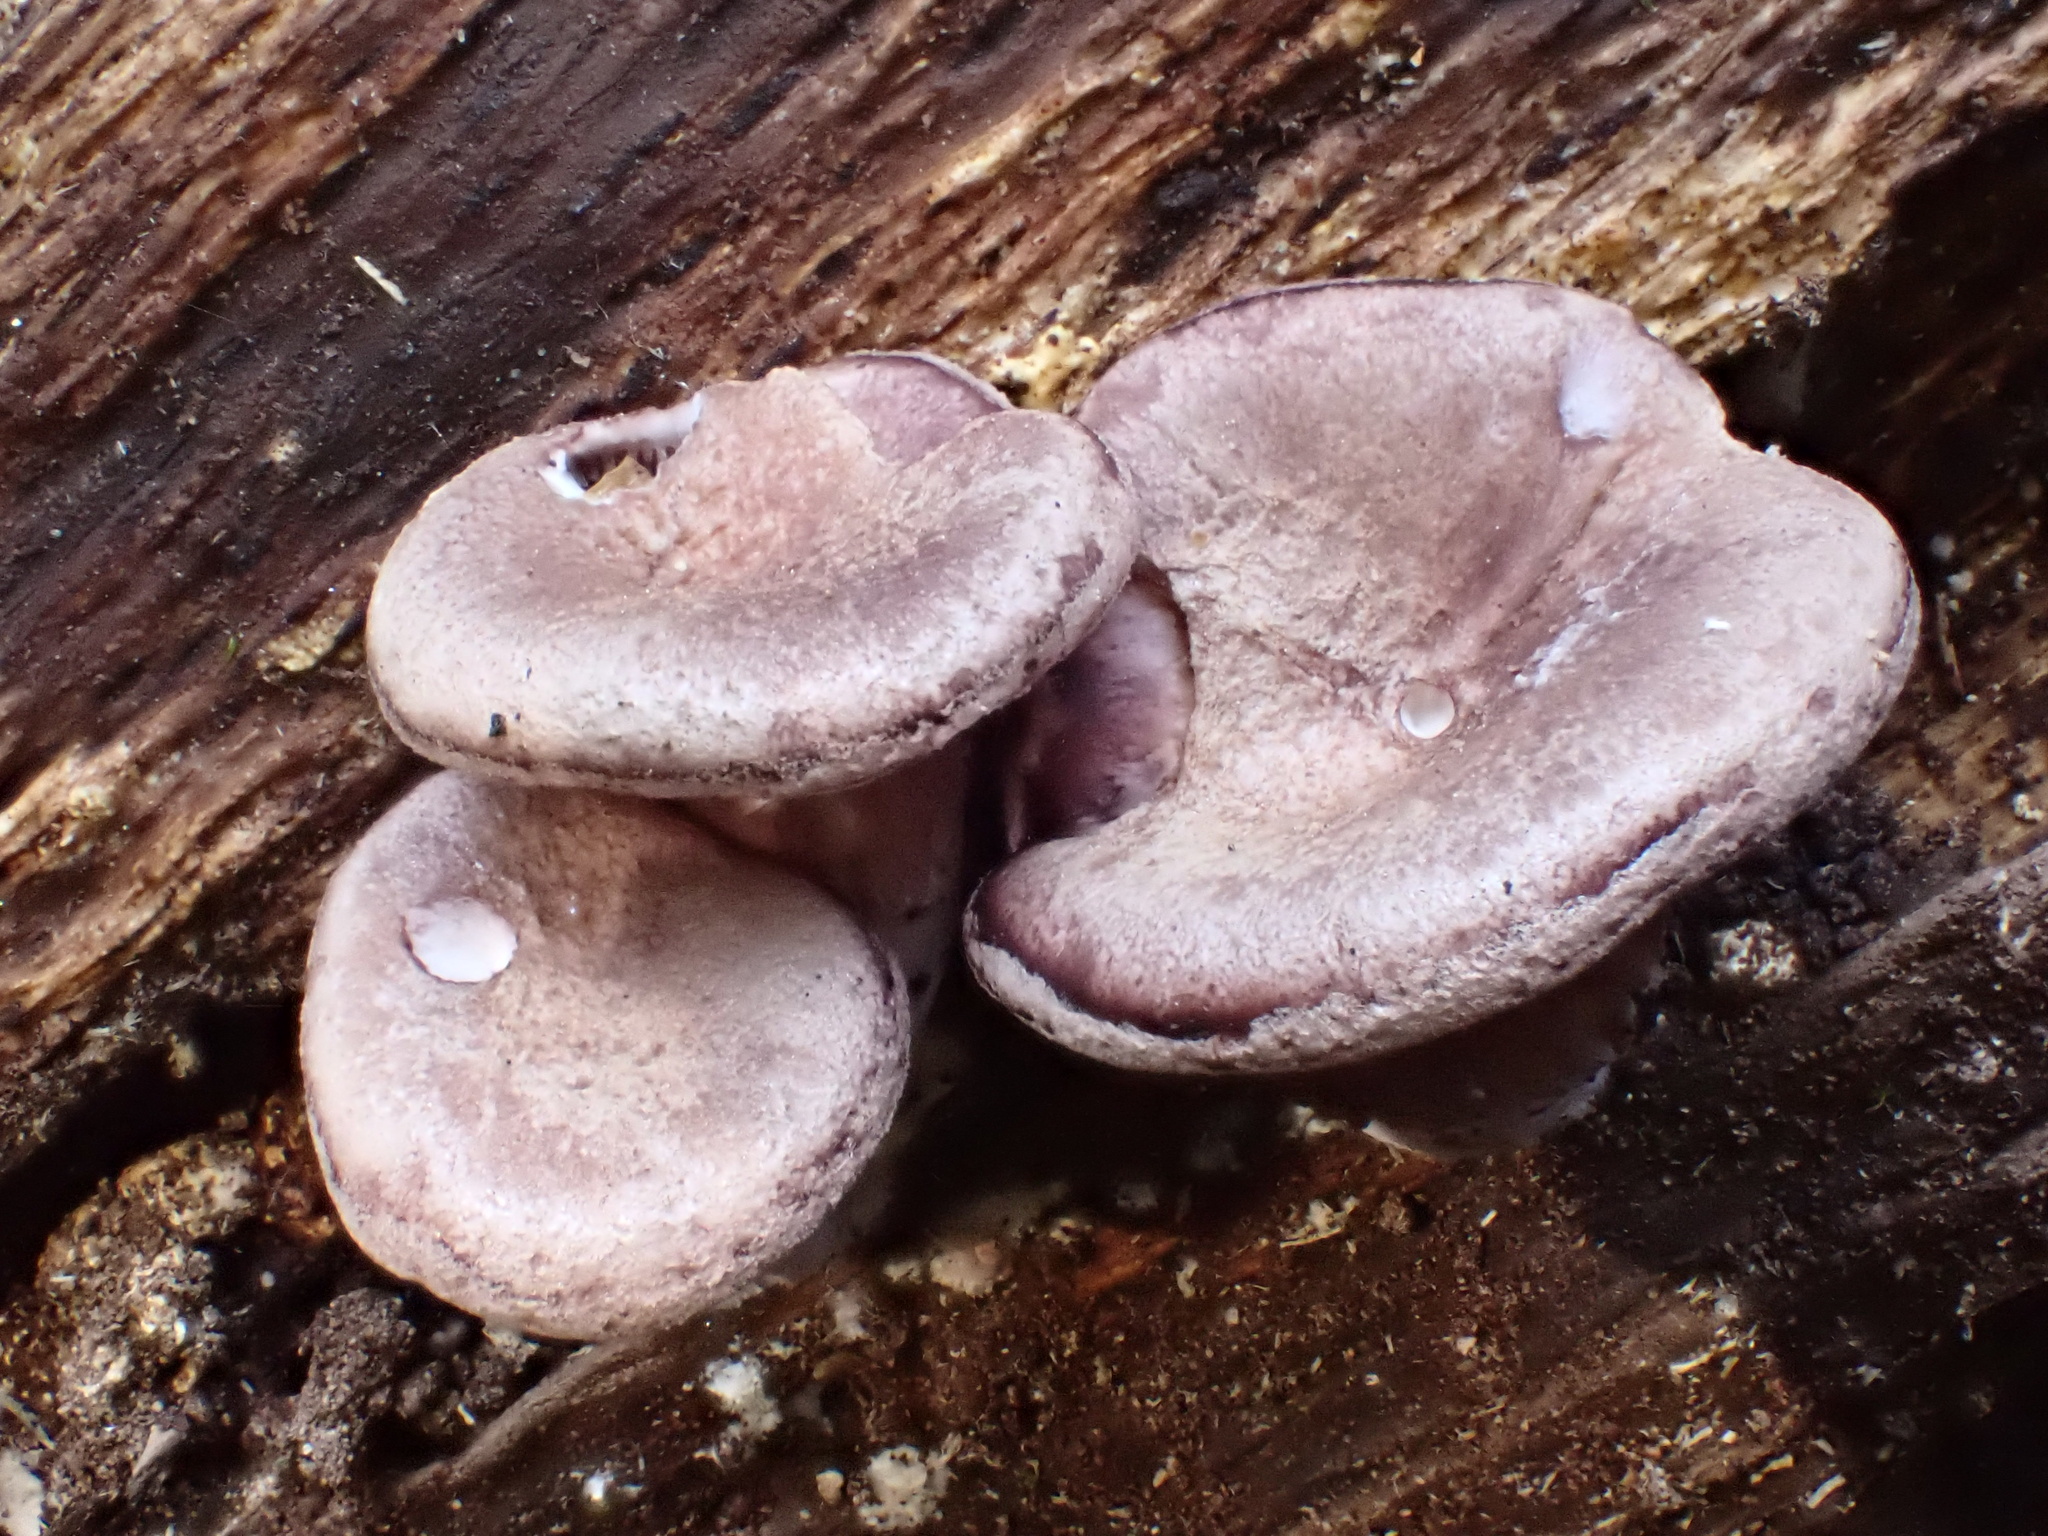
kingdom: Fungi
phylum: Basidiomycota
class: Agaricomycetes
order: Polyporales
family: Panaceae
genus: Panus
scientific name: Panus conchatus
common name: Lilac oysterling
